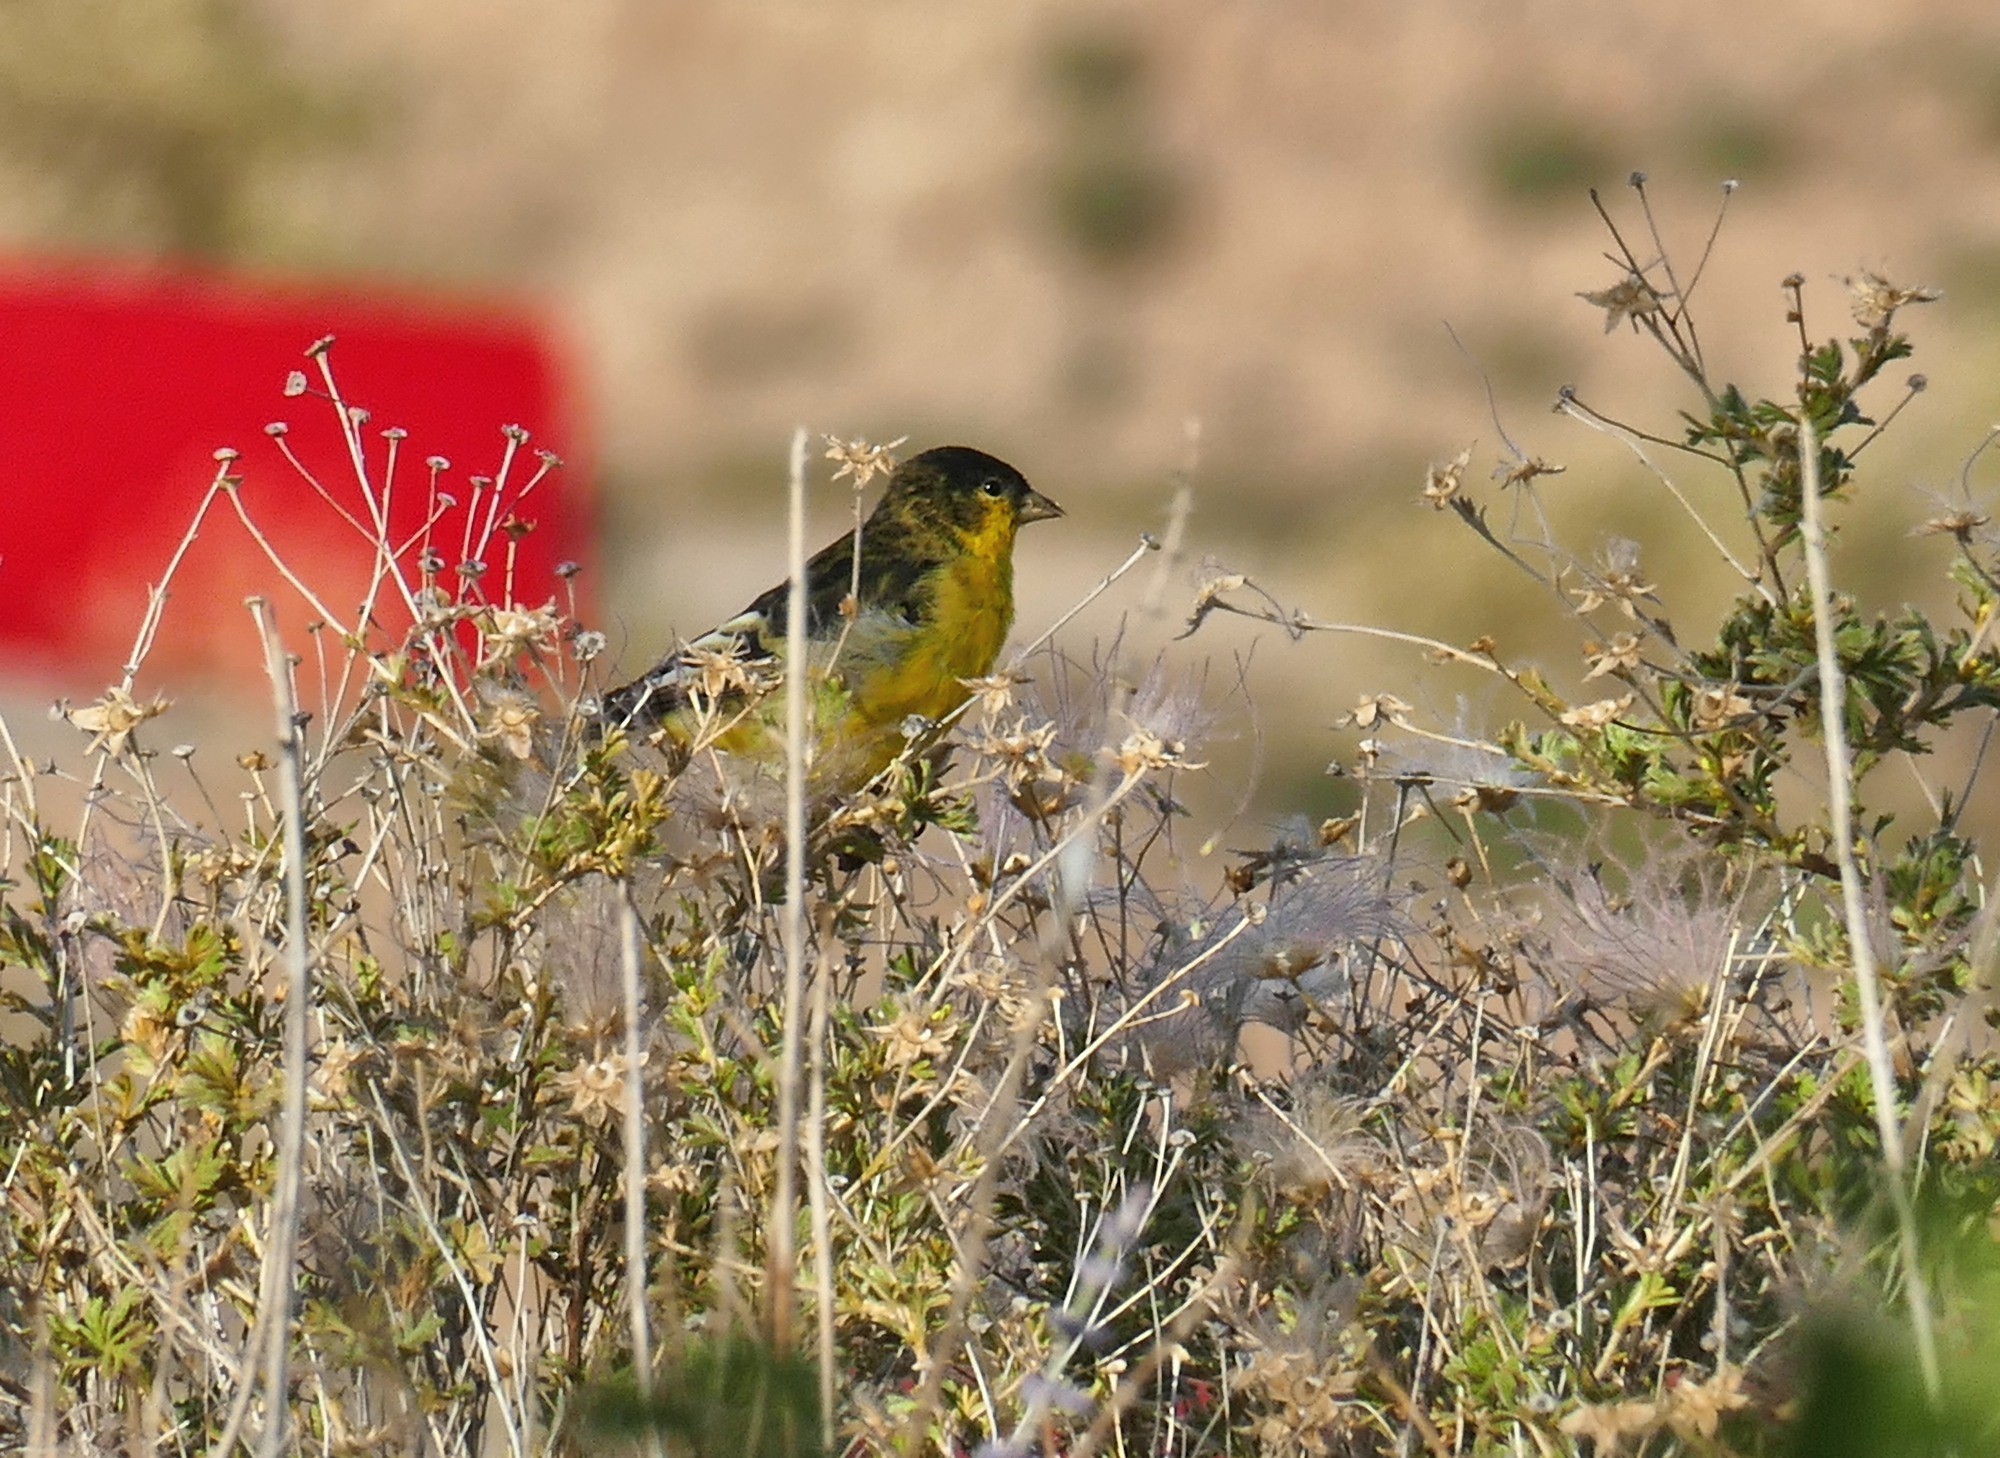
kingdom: Animalia
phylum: Chordata
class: Aves
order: Passeriformes
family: Fringillidae
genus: Spinus
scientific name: Spinus psaltria
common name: Lesser goldfinch
